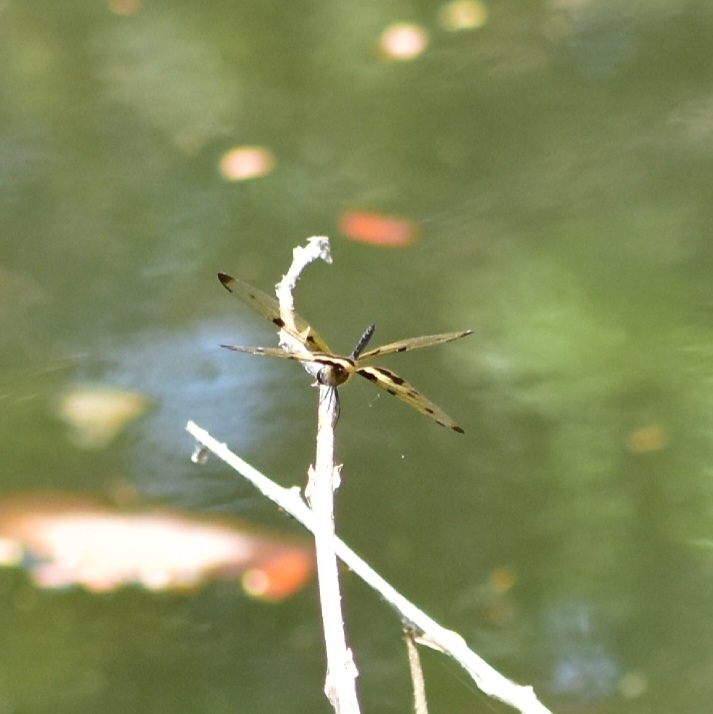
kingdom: Animalia
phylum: Arthropoda
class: Insecta
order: Odonata
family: Libellulidae
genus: Rhyothemis
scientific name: Rhyothemis variegata
